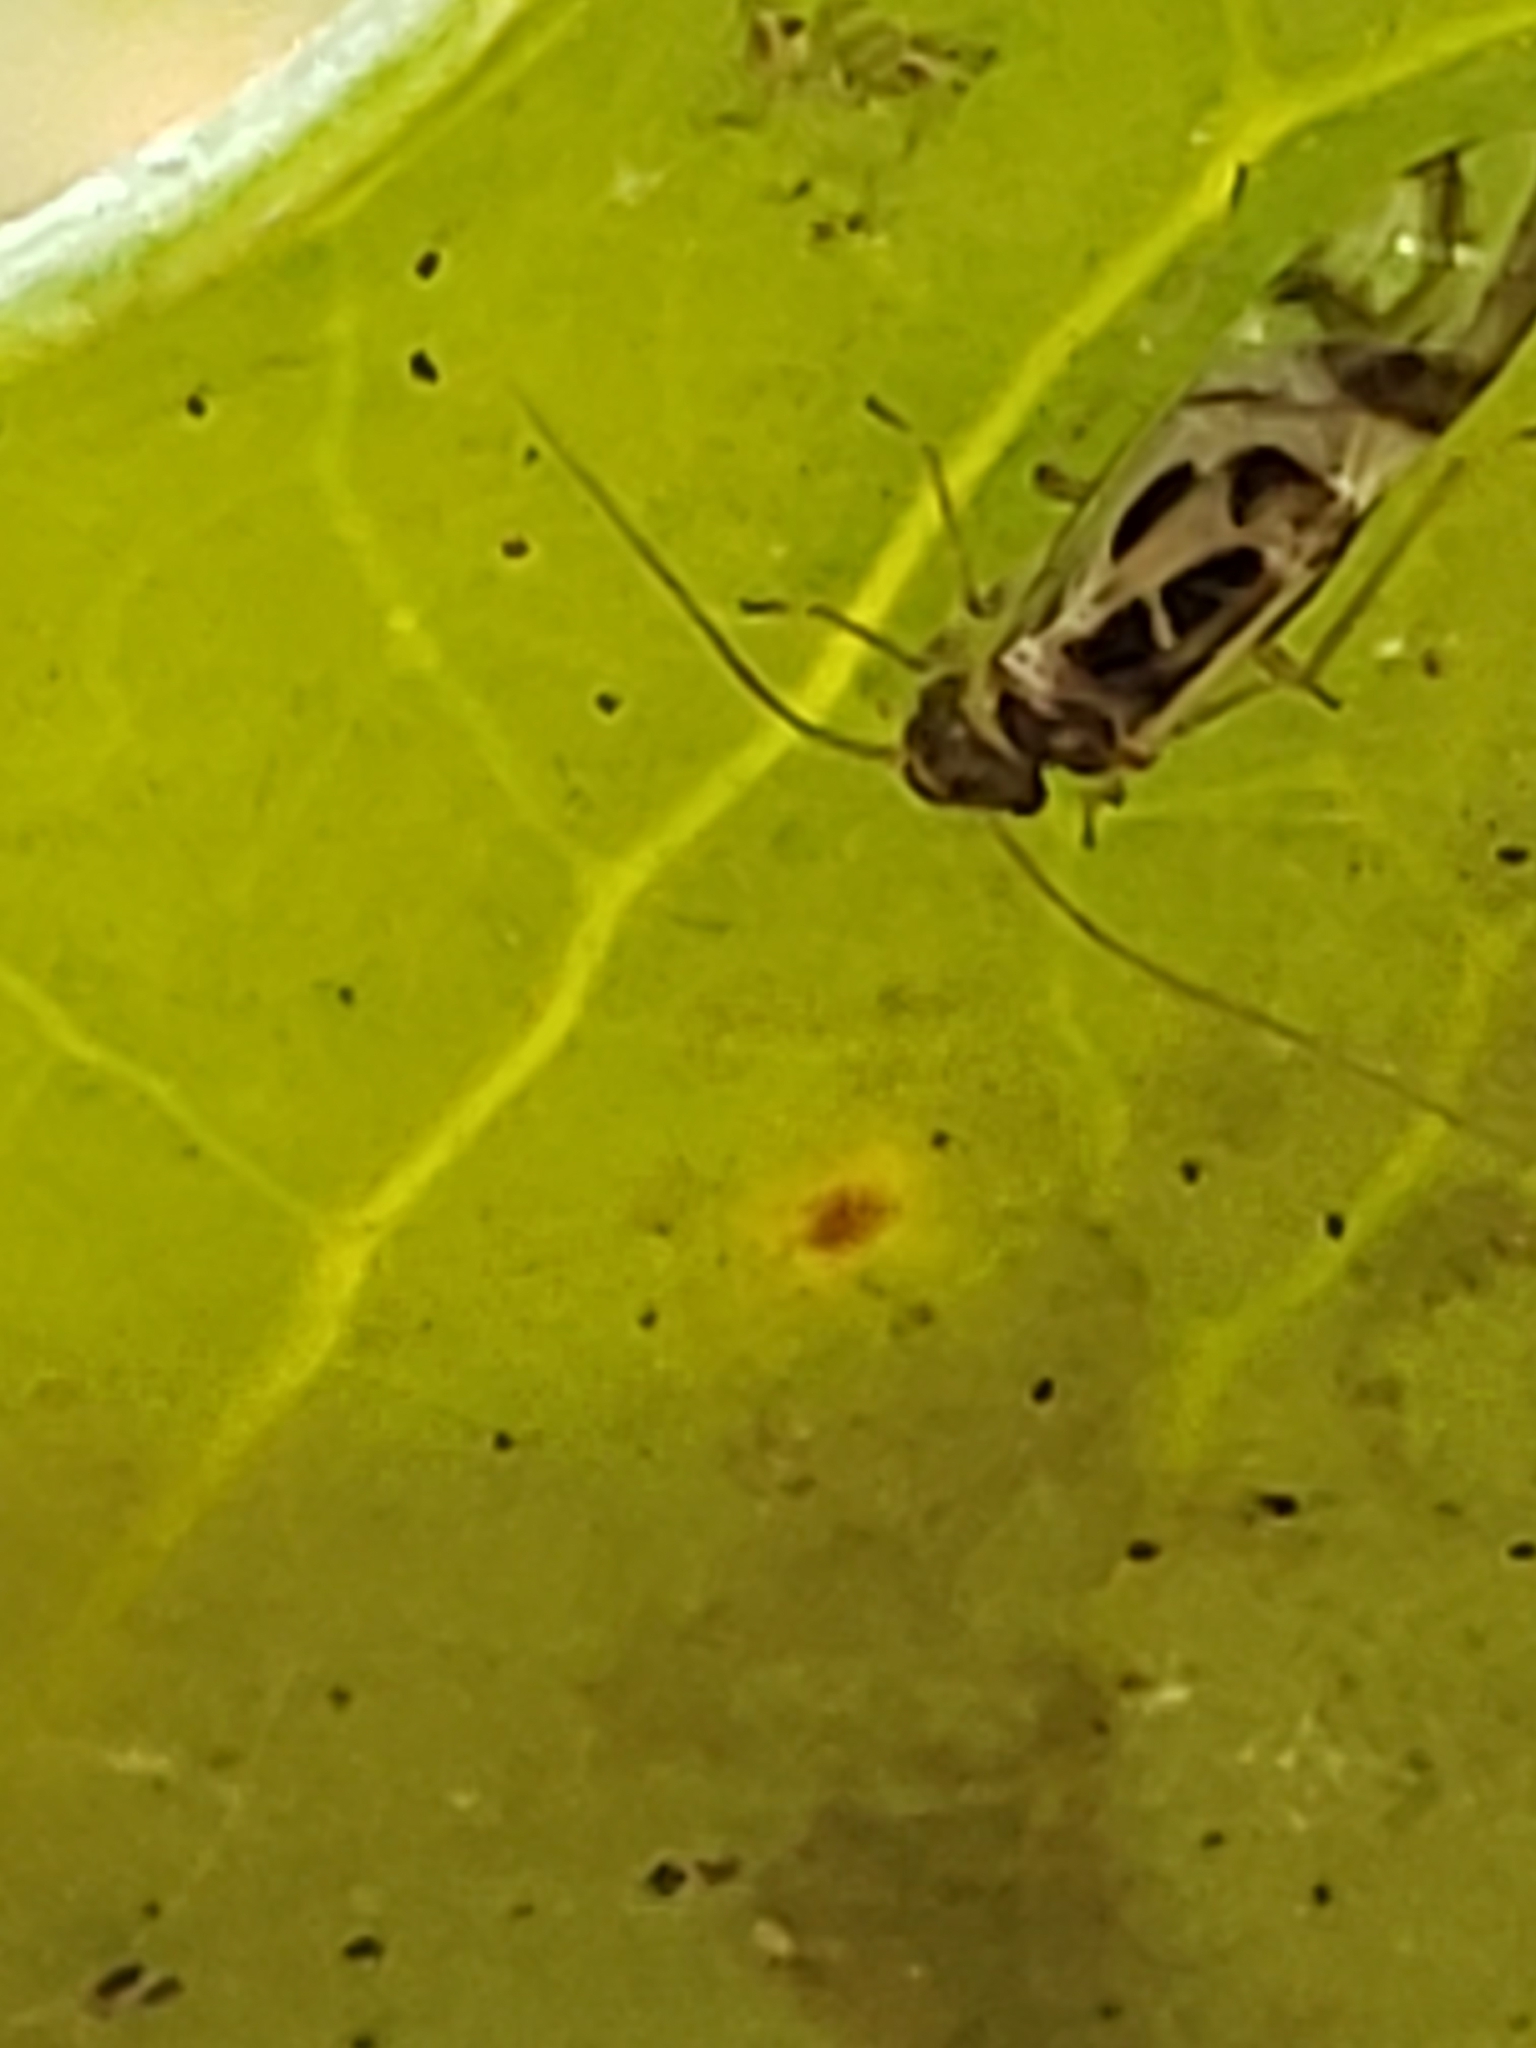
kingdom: Animalia
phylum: Arthropoda
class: Insecta
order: Psocodea
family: Stenopsocidae
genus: Graphopsocus
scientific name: Graphopsocus cruciatus
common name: Lizard bark louse
